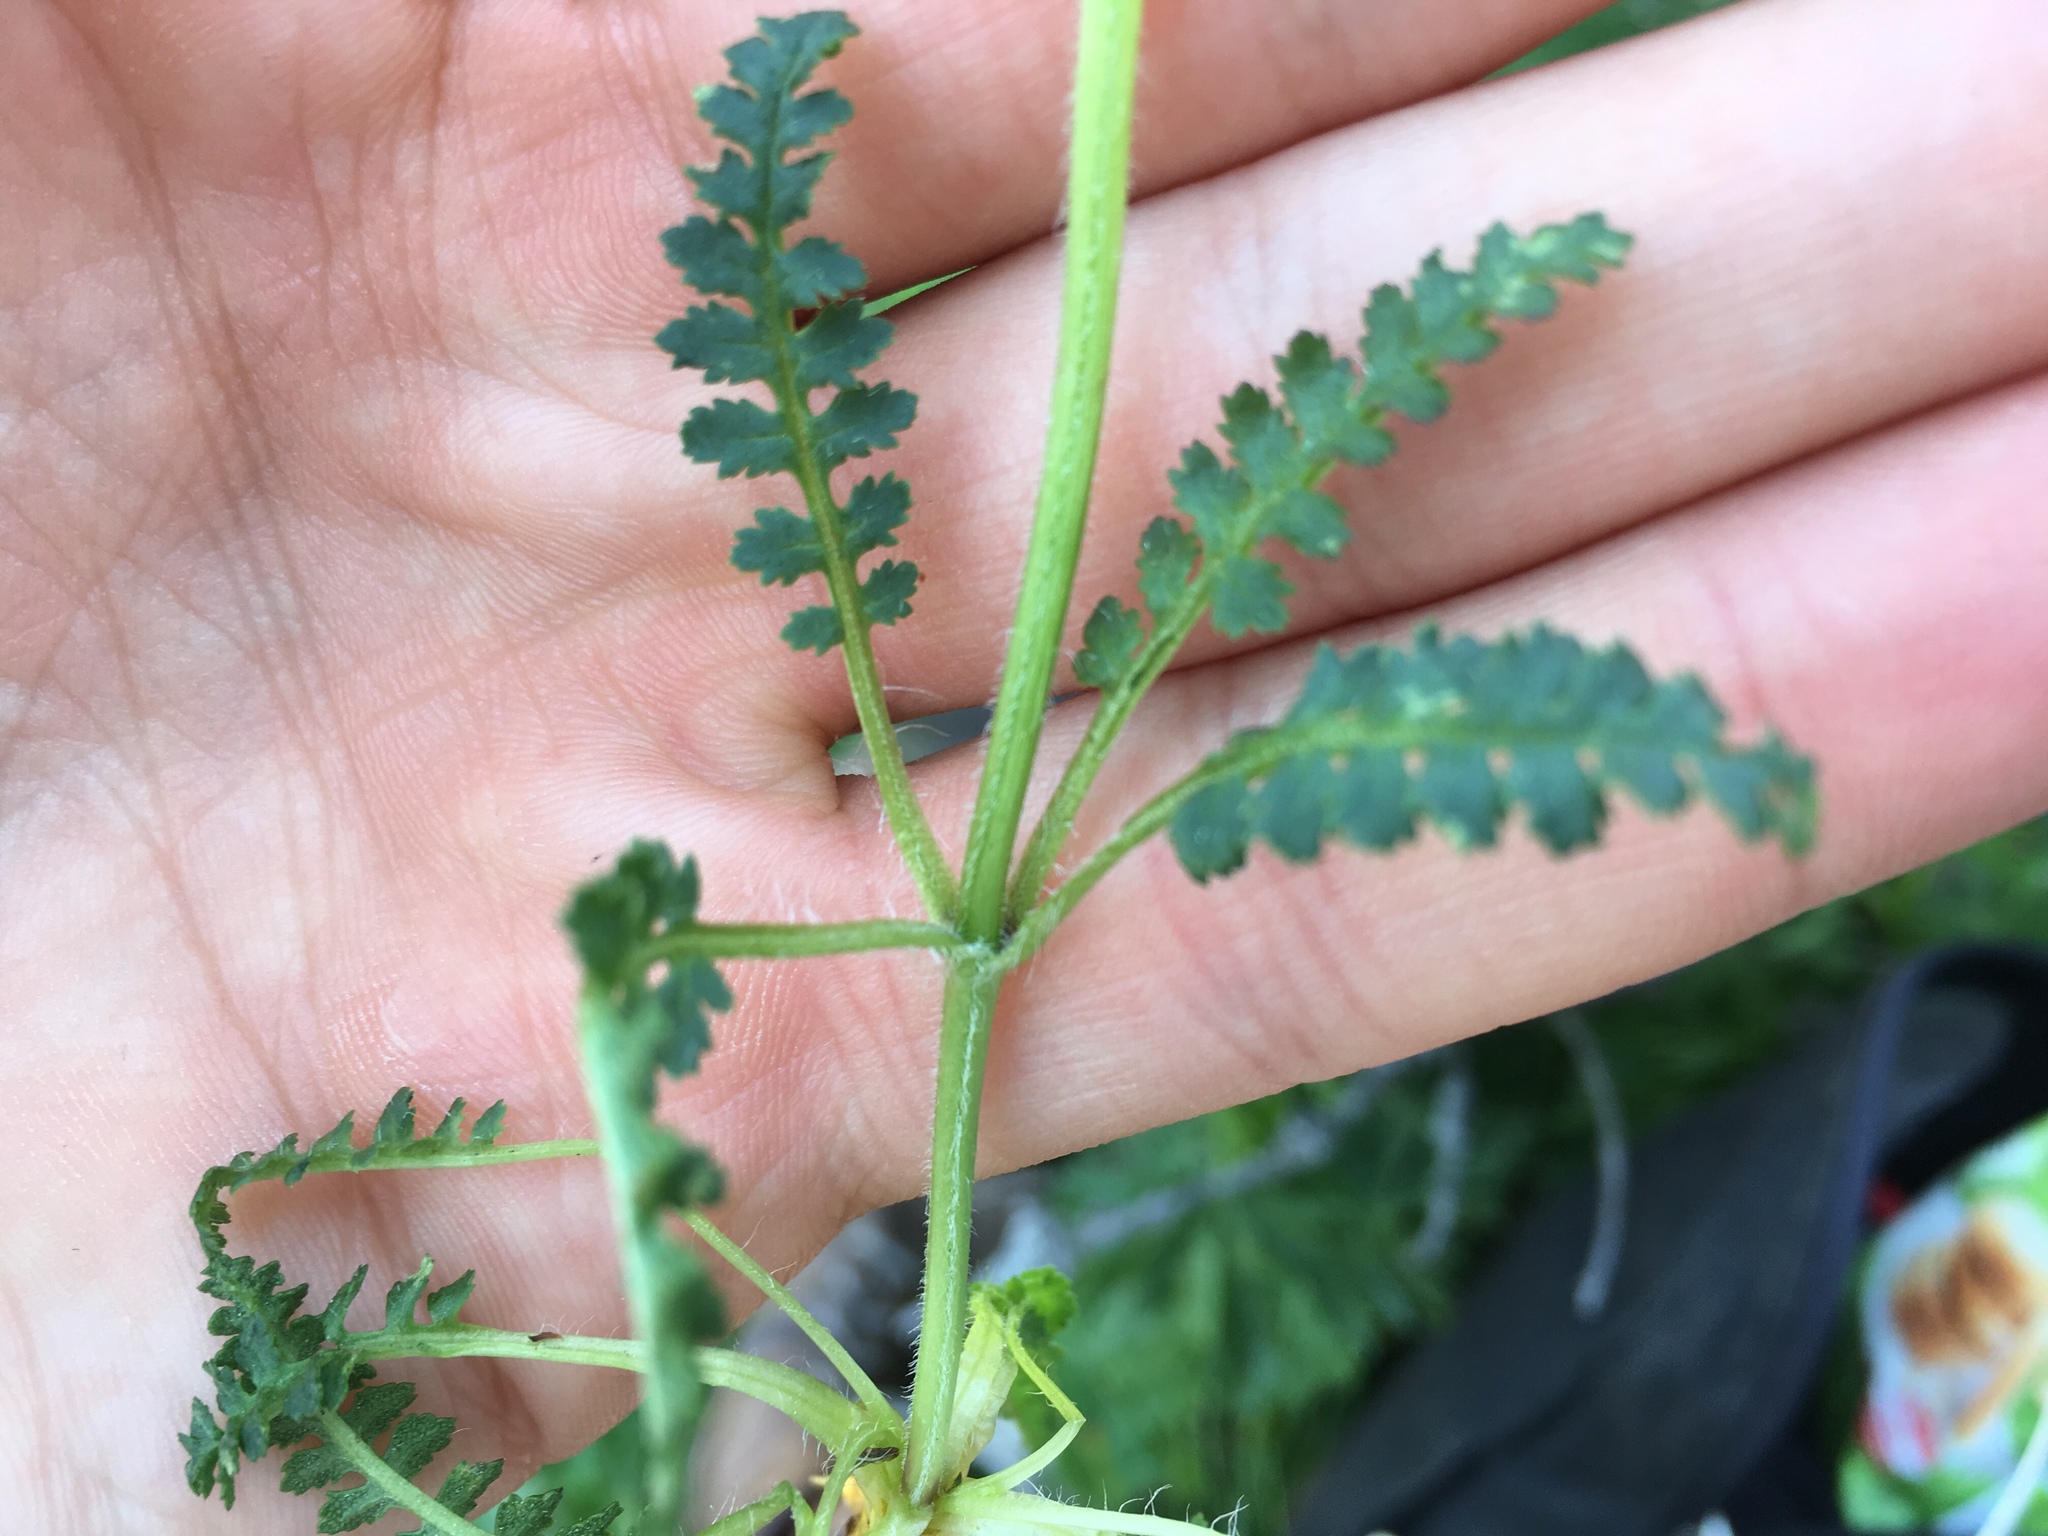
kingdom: Plantae
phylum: Tracheophyta
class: Magnoliopsida
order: Lamiales
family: Orobanchaceae
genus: Pedicularis
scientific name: Pedicularis verticillata
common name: Whorled lousewort
